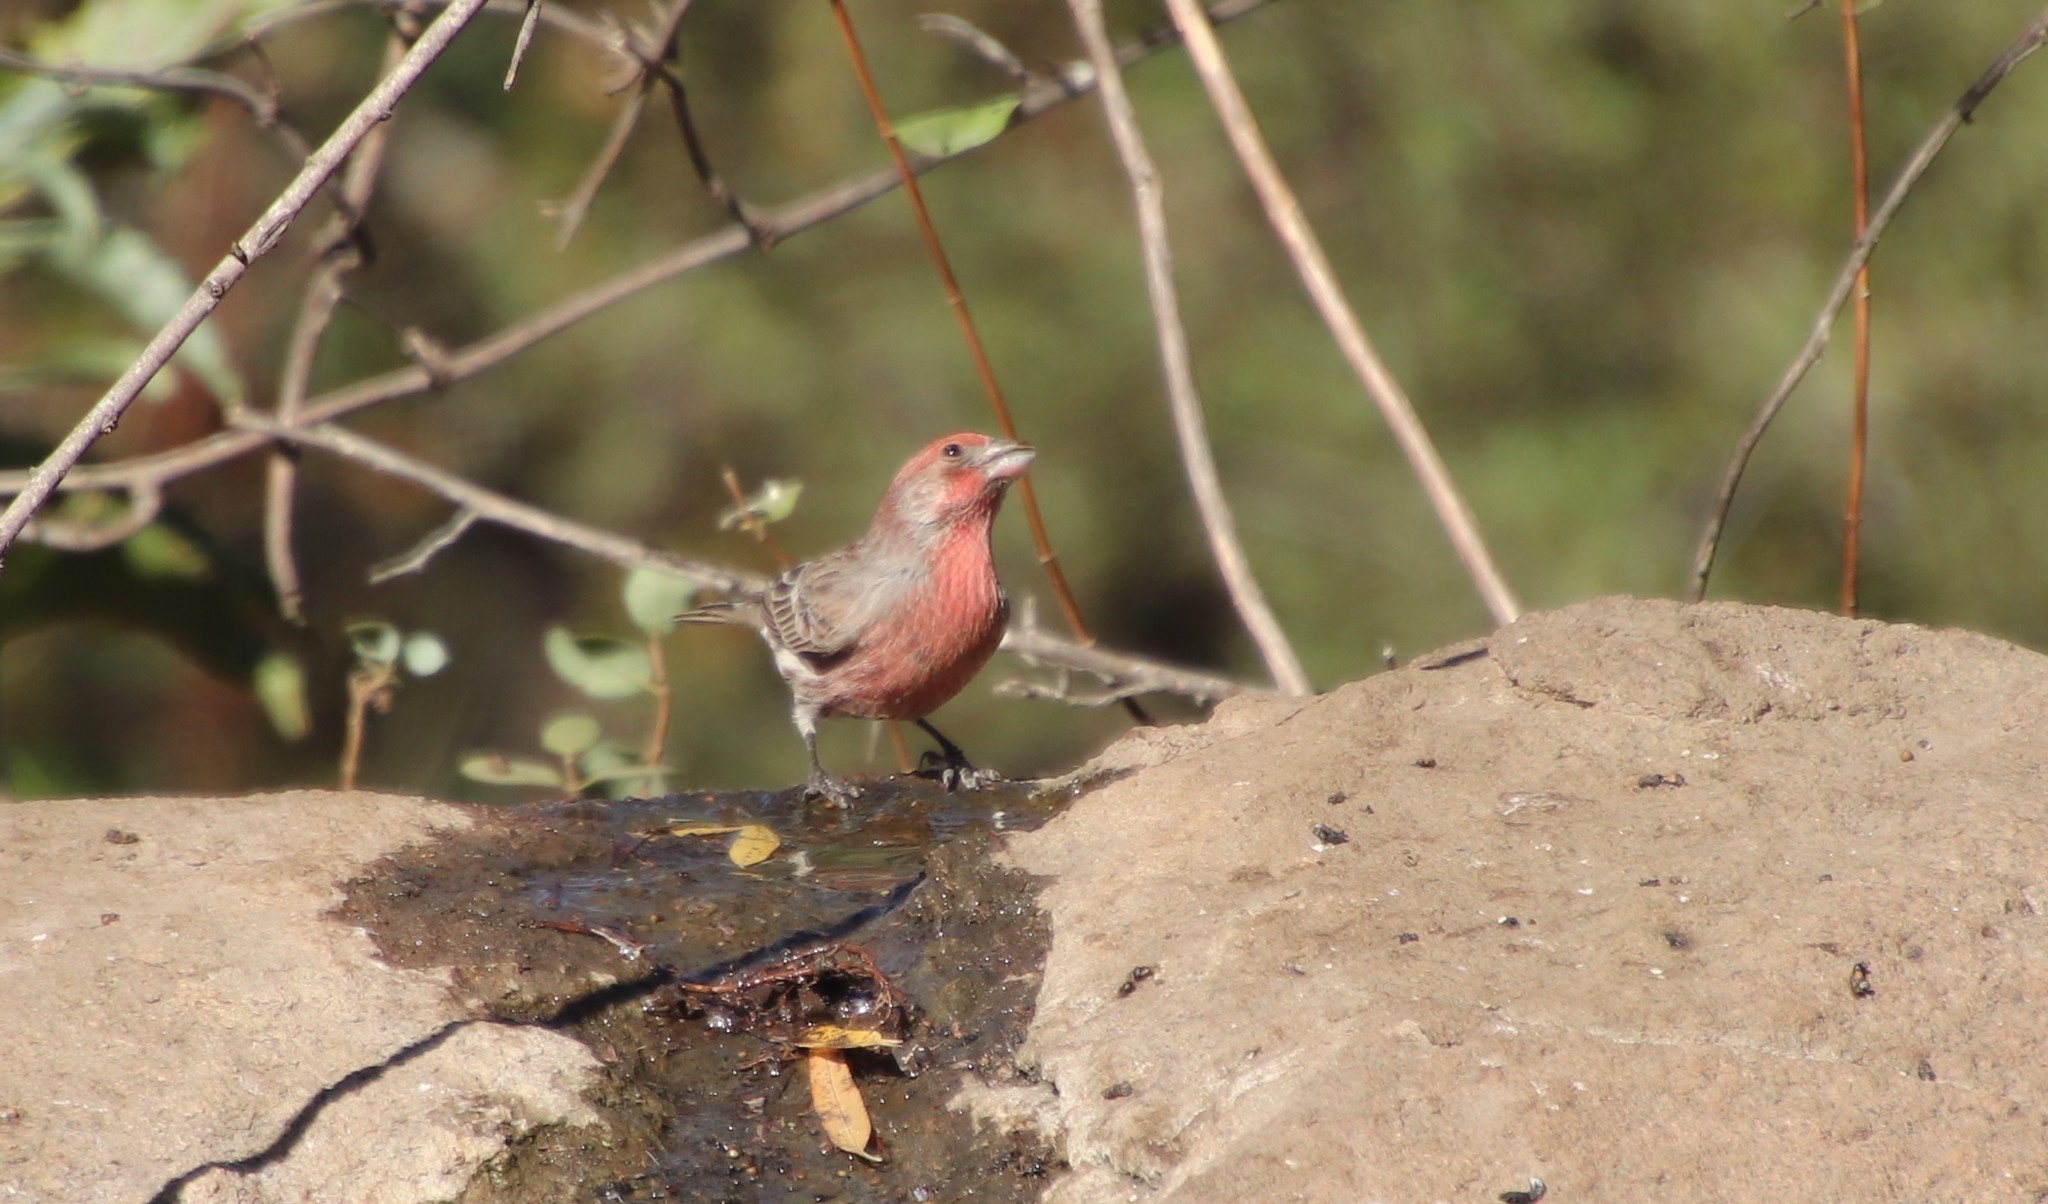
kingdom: Animalia
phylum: Chordata
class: Aves
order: Passeriformes
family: Fringillidae
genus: Haemorhous
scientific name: Haemorhous mexicanus
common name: House finch
